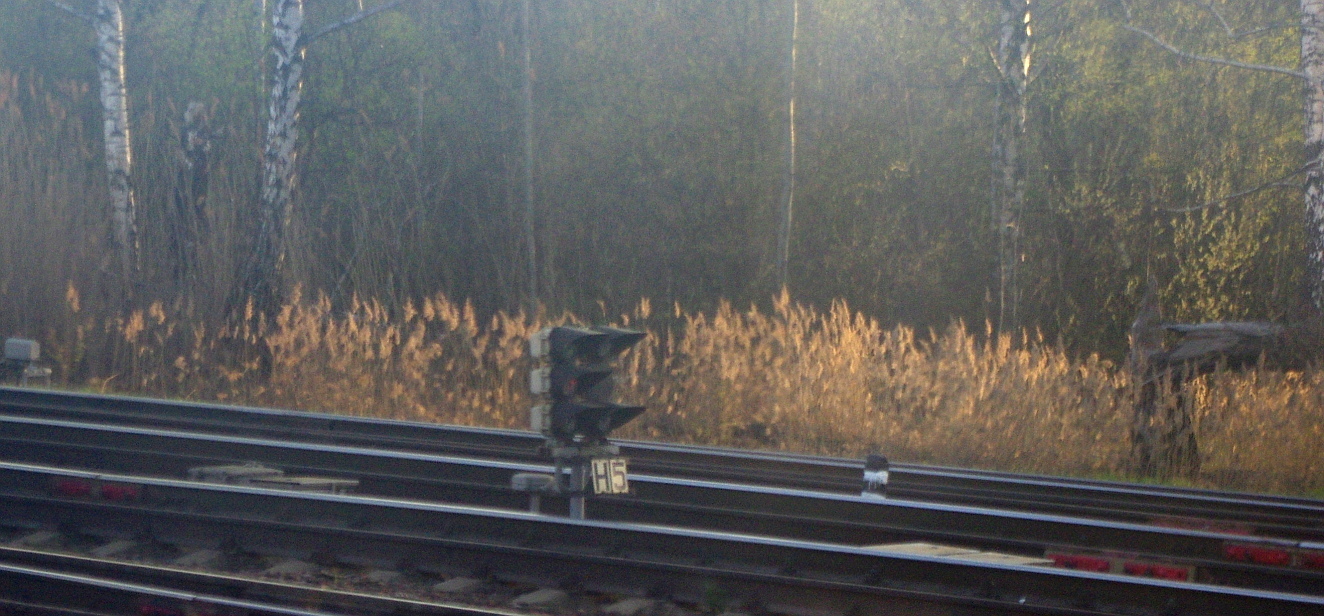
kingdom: Plantae
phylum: Tracheophyta
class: Liliopsida
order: Poales
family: Poaceae
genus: Calamagrostis
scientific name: Calamagrostis epigejos
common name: Wood small-reed
